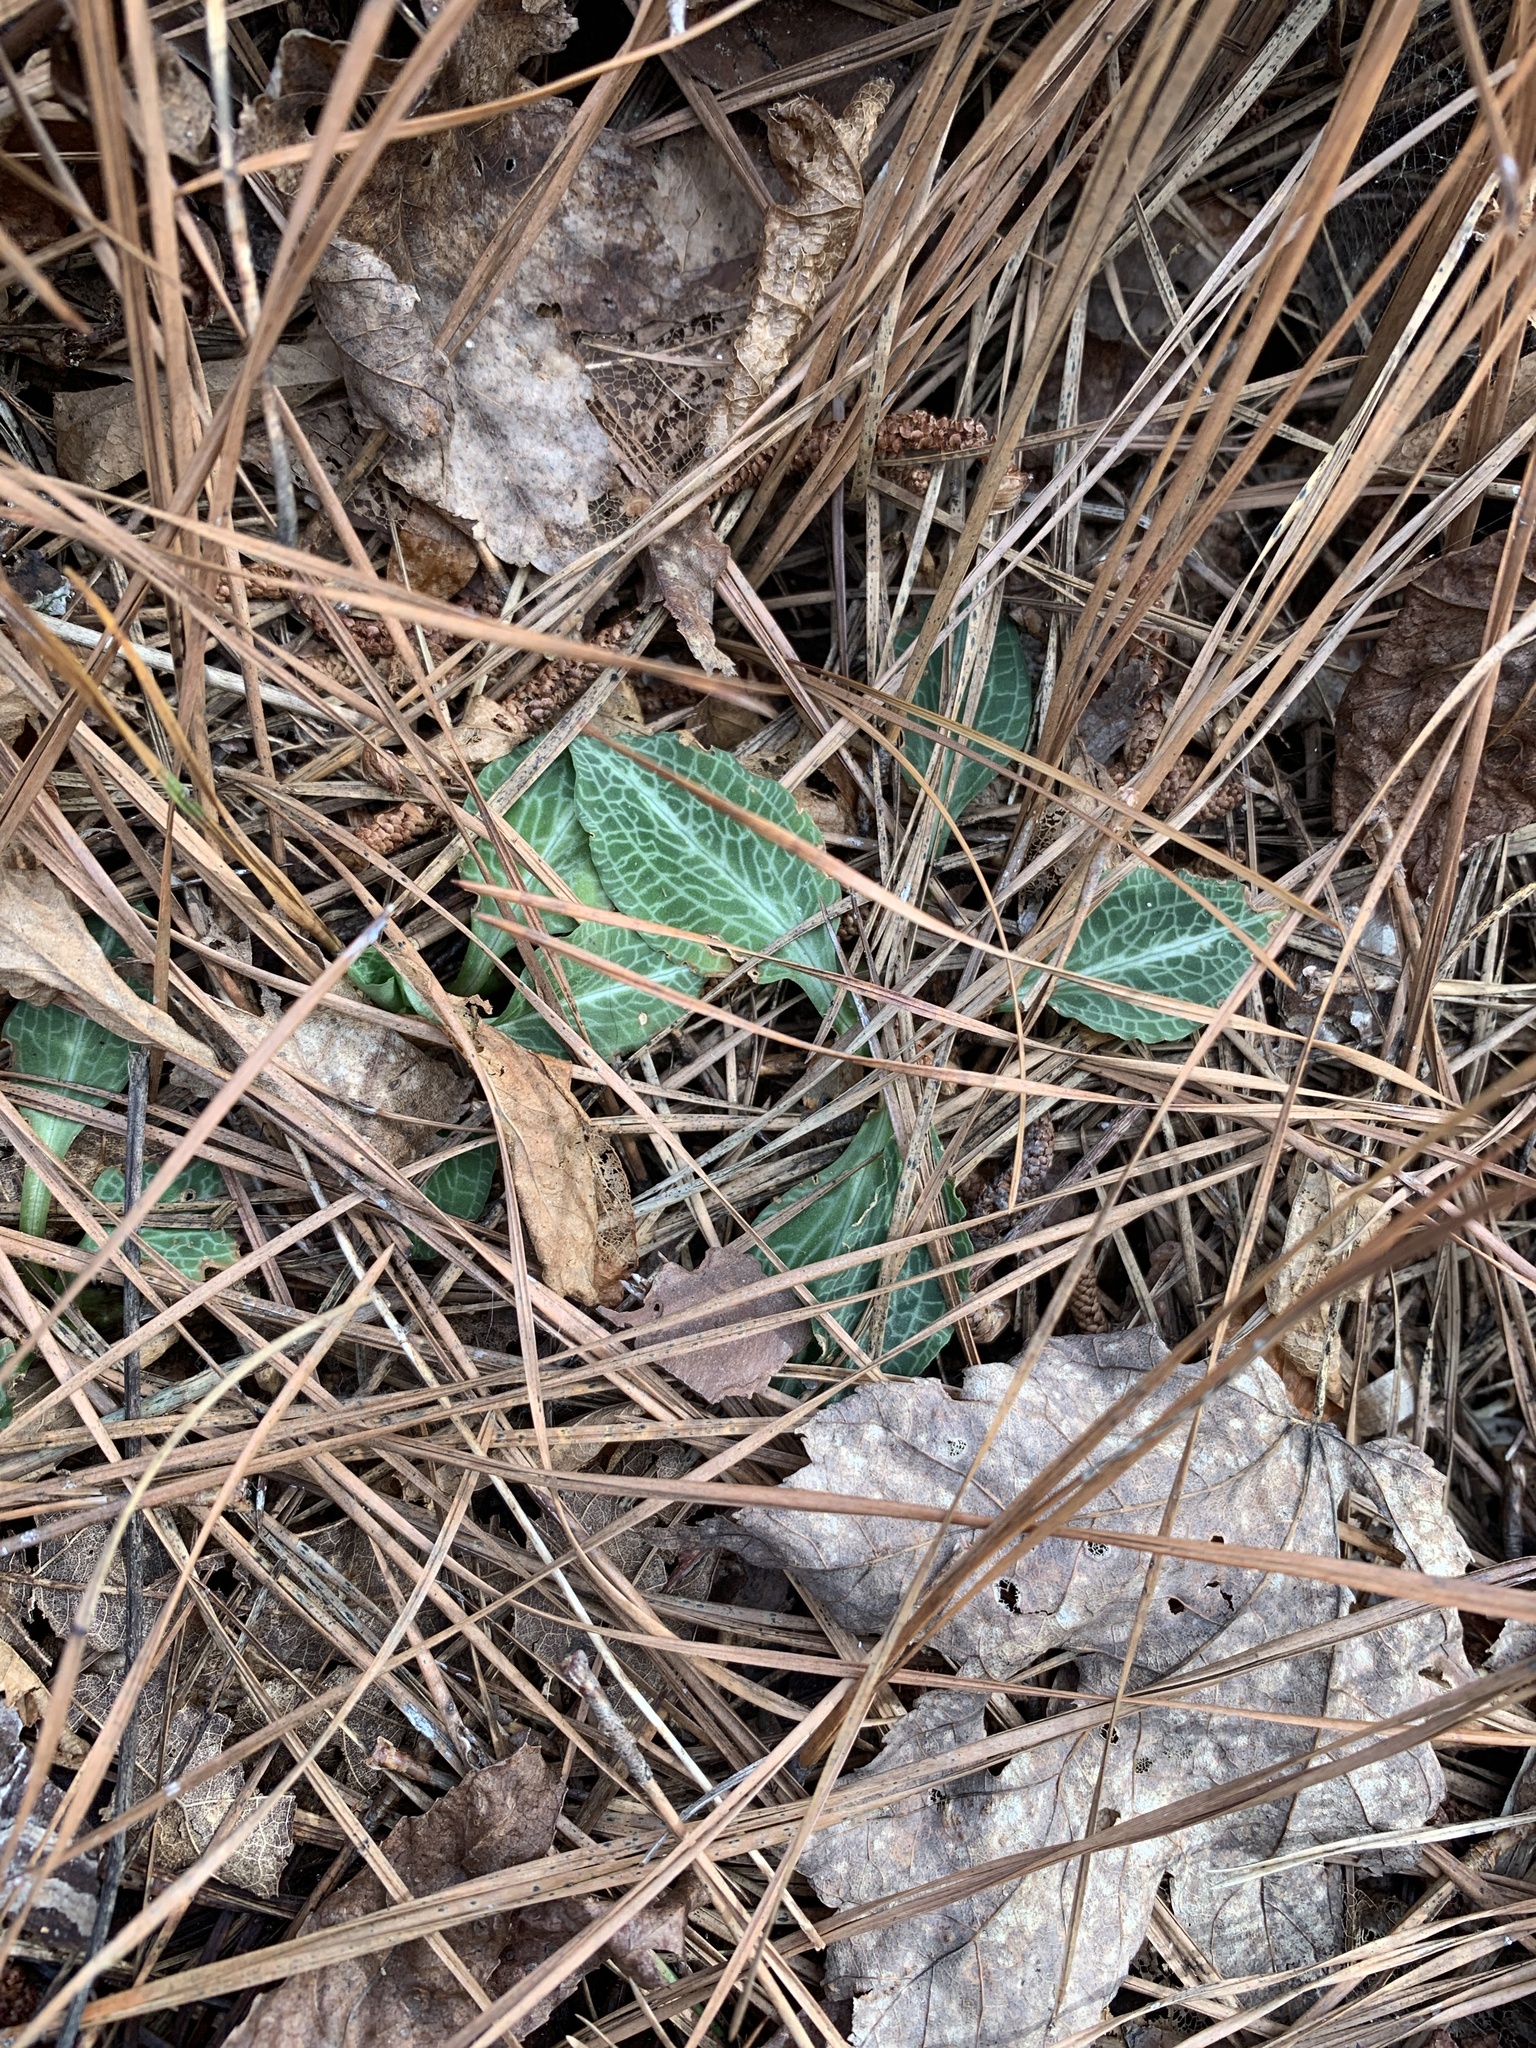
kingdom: Plantae
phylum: Tracheophyta
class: Liliopsida
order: Asparagales
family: Orchidaceae
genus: Goodyera
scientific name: Goodyera pubescens
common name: Downy rattlesnake-plantain
